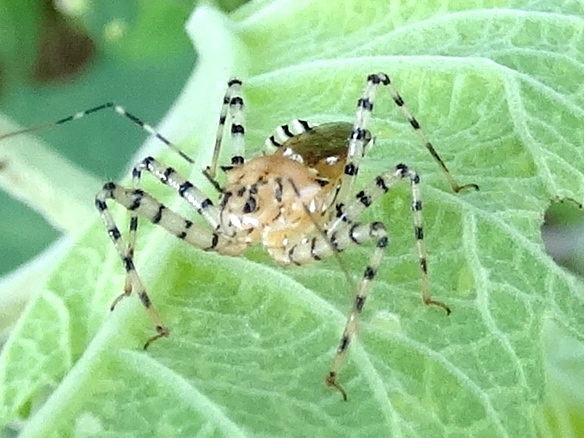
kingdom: Animalia
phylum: Arthropoda
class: Insecta
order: Hemiptera
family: Reduviidae
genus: Pselliopus
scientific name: Pselliopus
